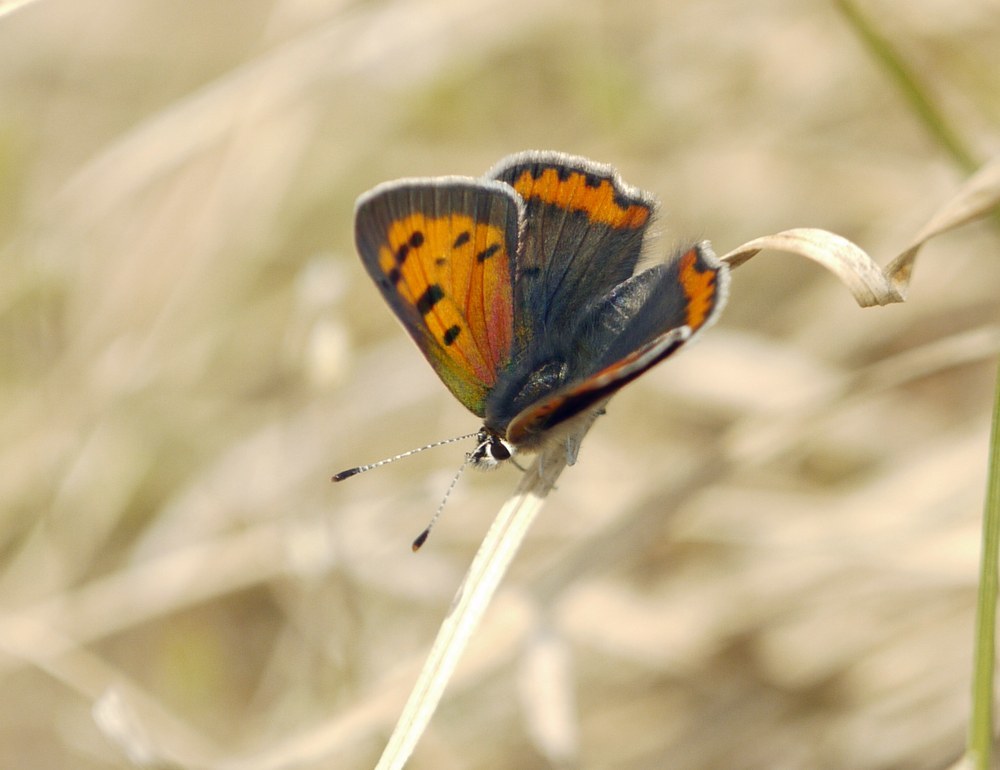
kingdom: Animalia
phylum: Arthropoda
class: Insecta
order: Lepidoptera
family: Lycaenidae
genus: Lycaena
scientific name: Lycaena phlaeas
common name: Small copper
